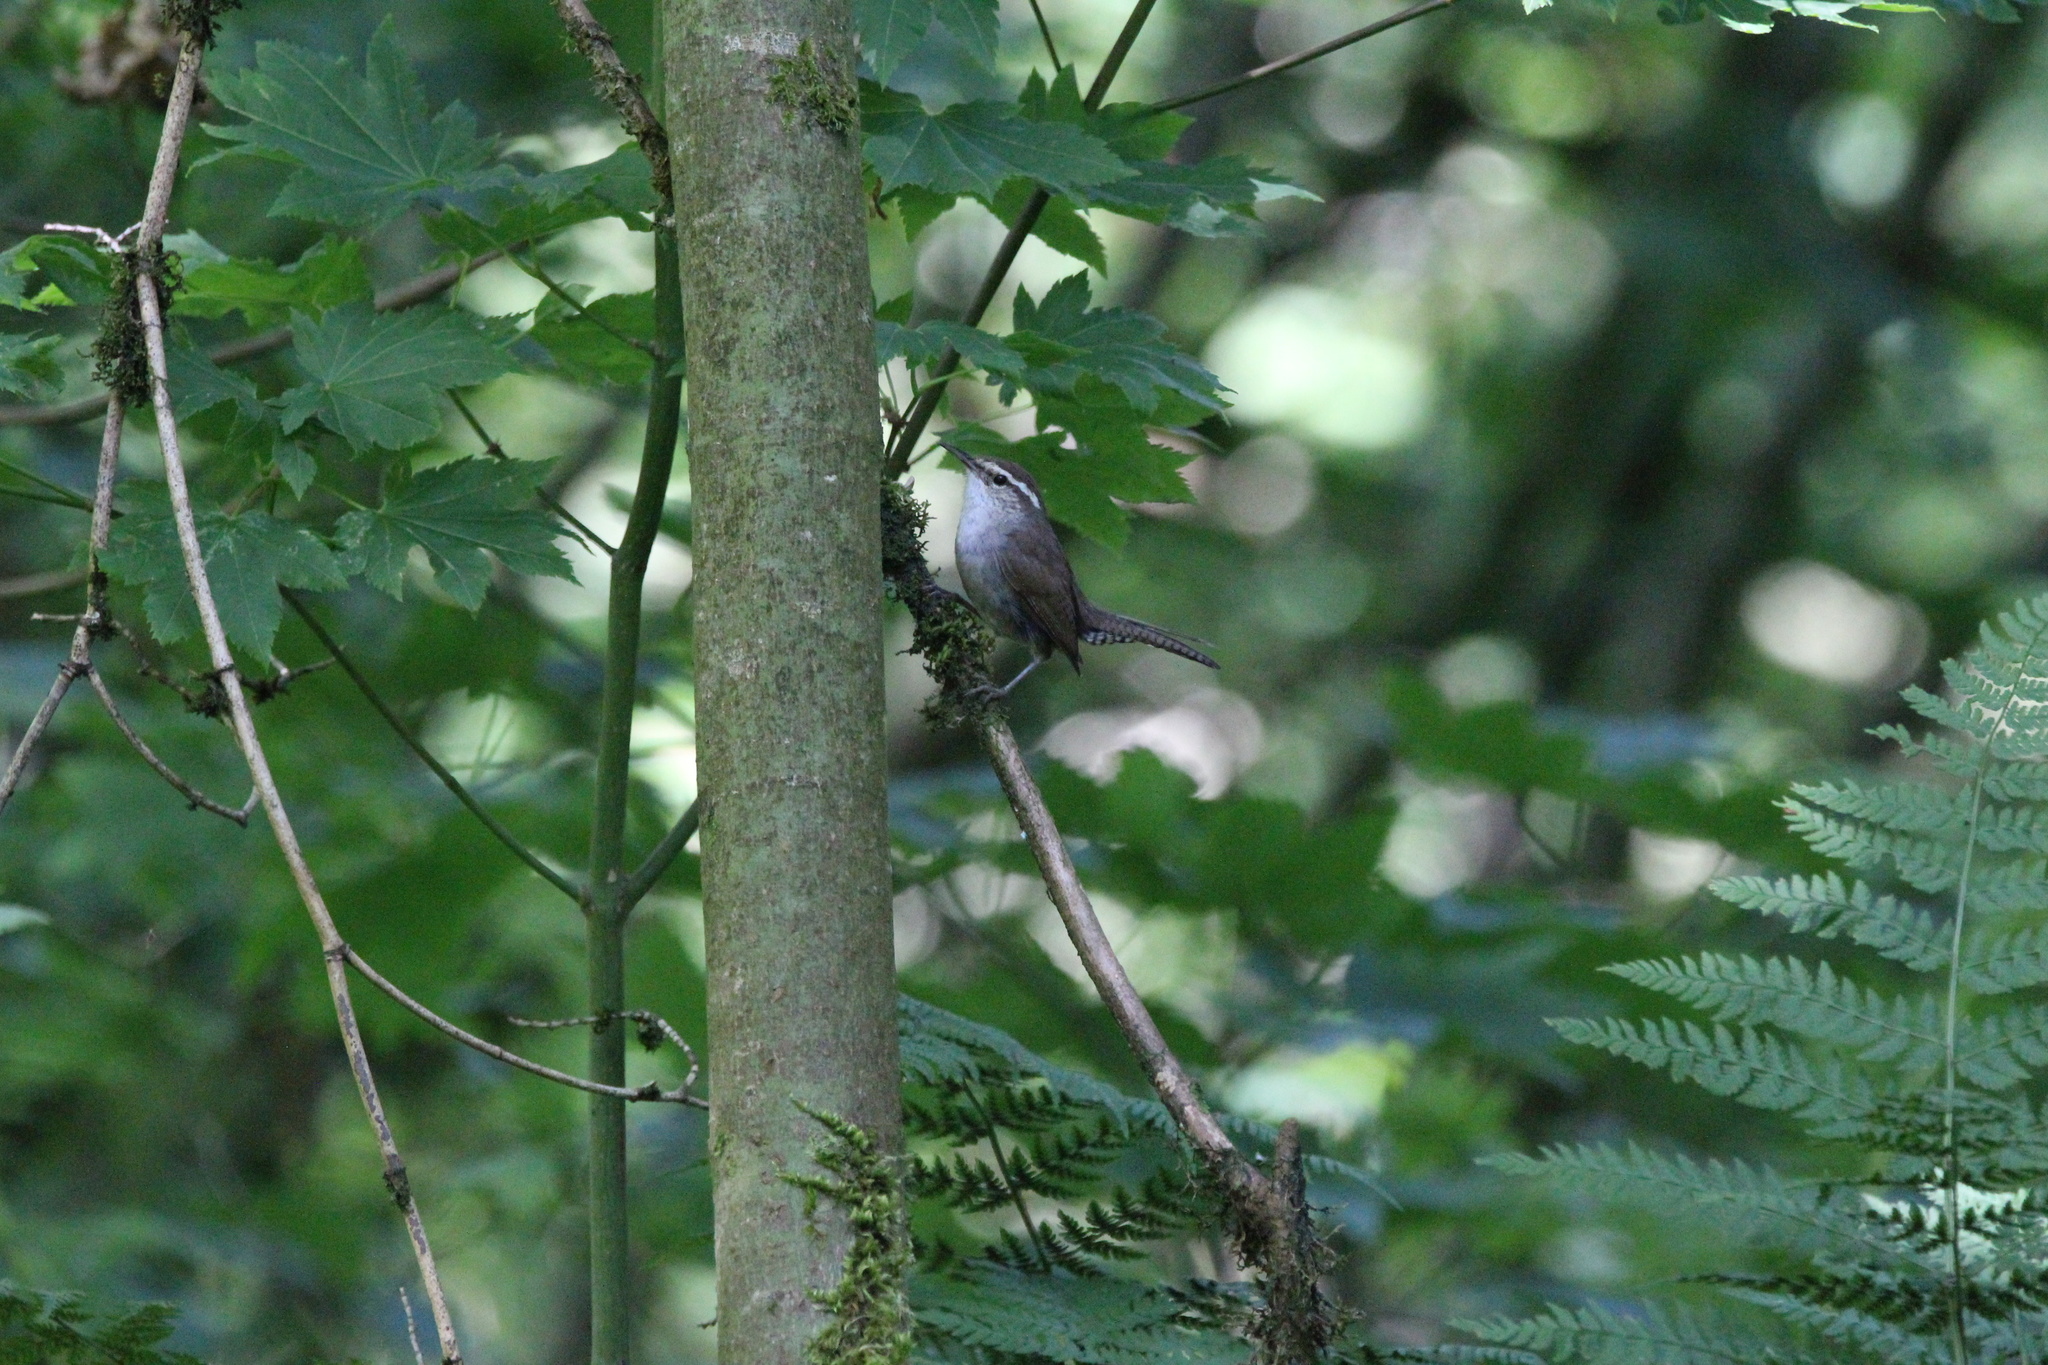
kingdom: Animalia
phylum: Chordata
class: Aves
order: Passeriformes
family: Troglodytidae
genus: Thryomanes
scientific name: Thryomanes bewickii
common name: Bewick's wren
